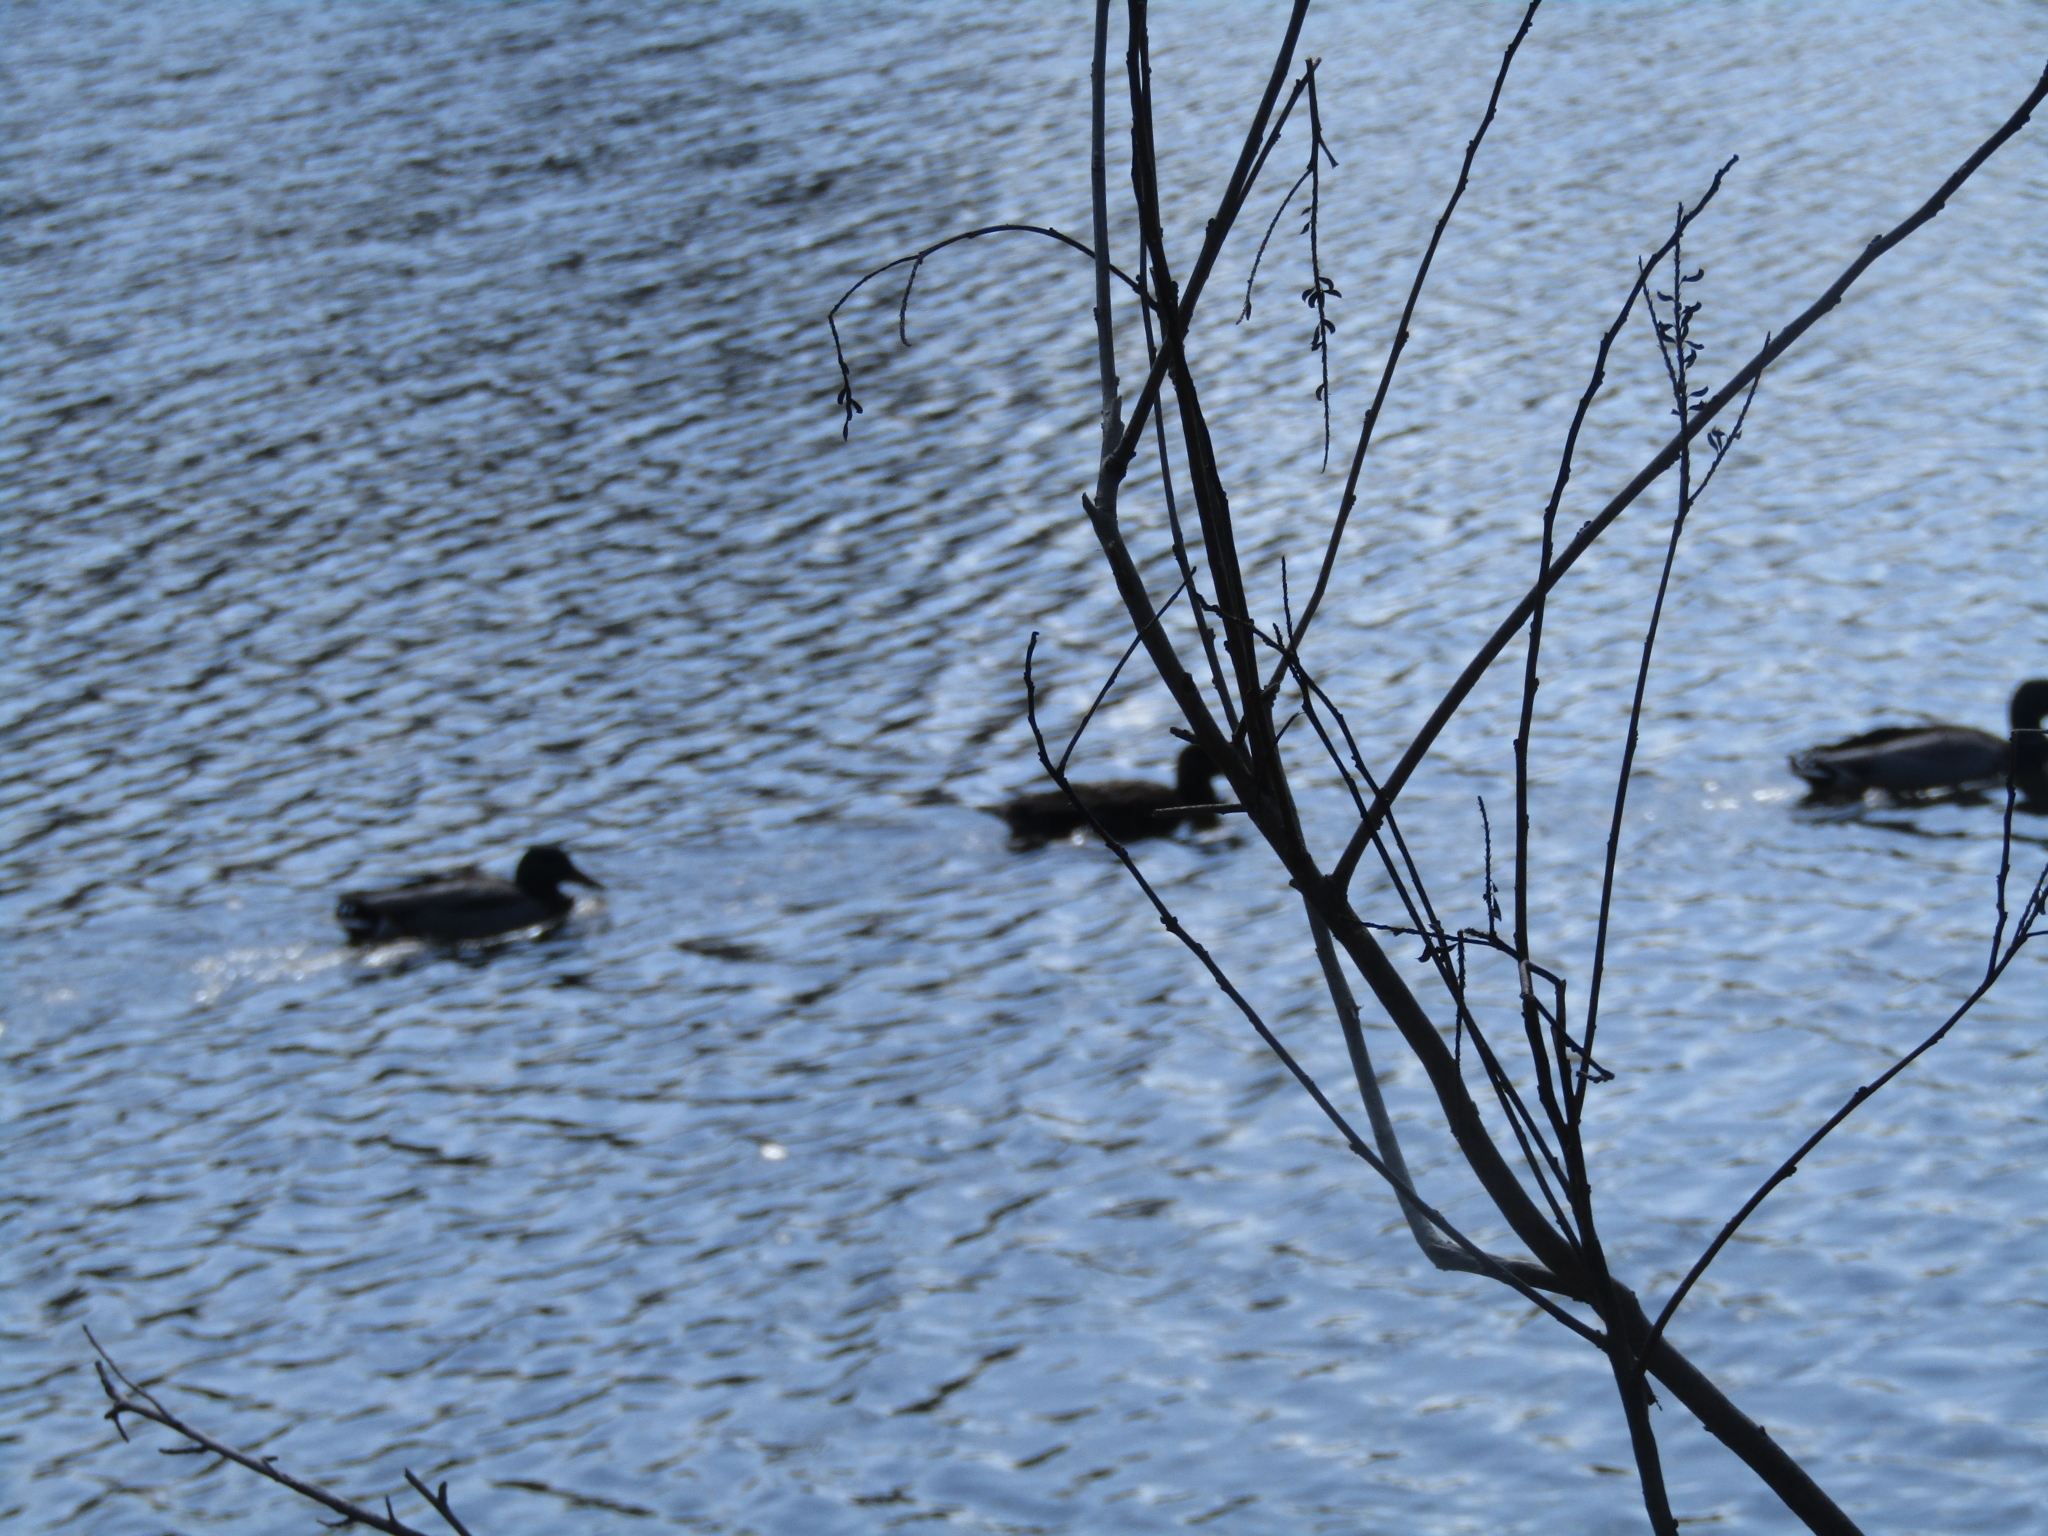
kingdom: Animalia
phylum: Chordata
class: Aves
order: Anseriformes
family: Anatidae
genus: Anas
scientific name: Anas platyrhynchos
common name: Mallard
